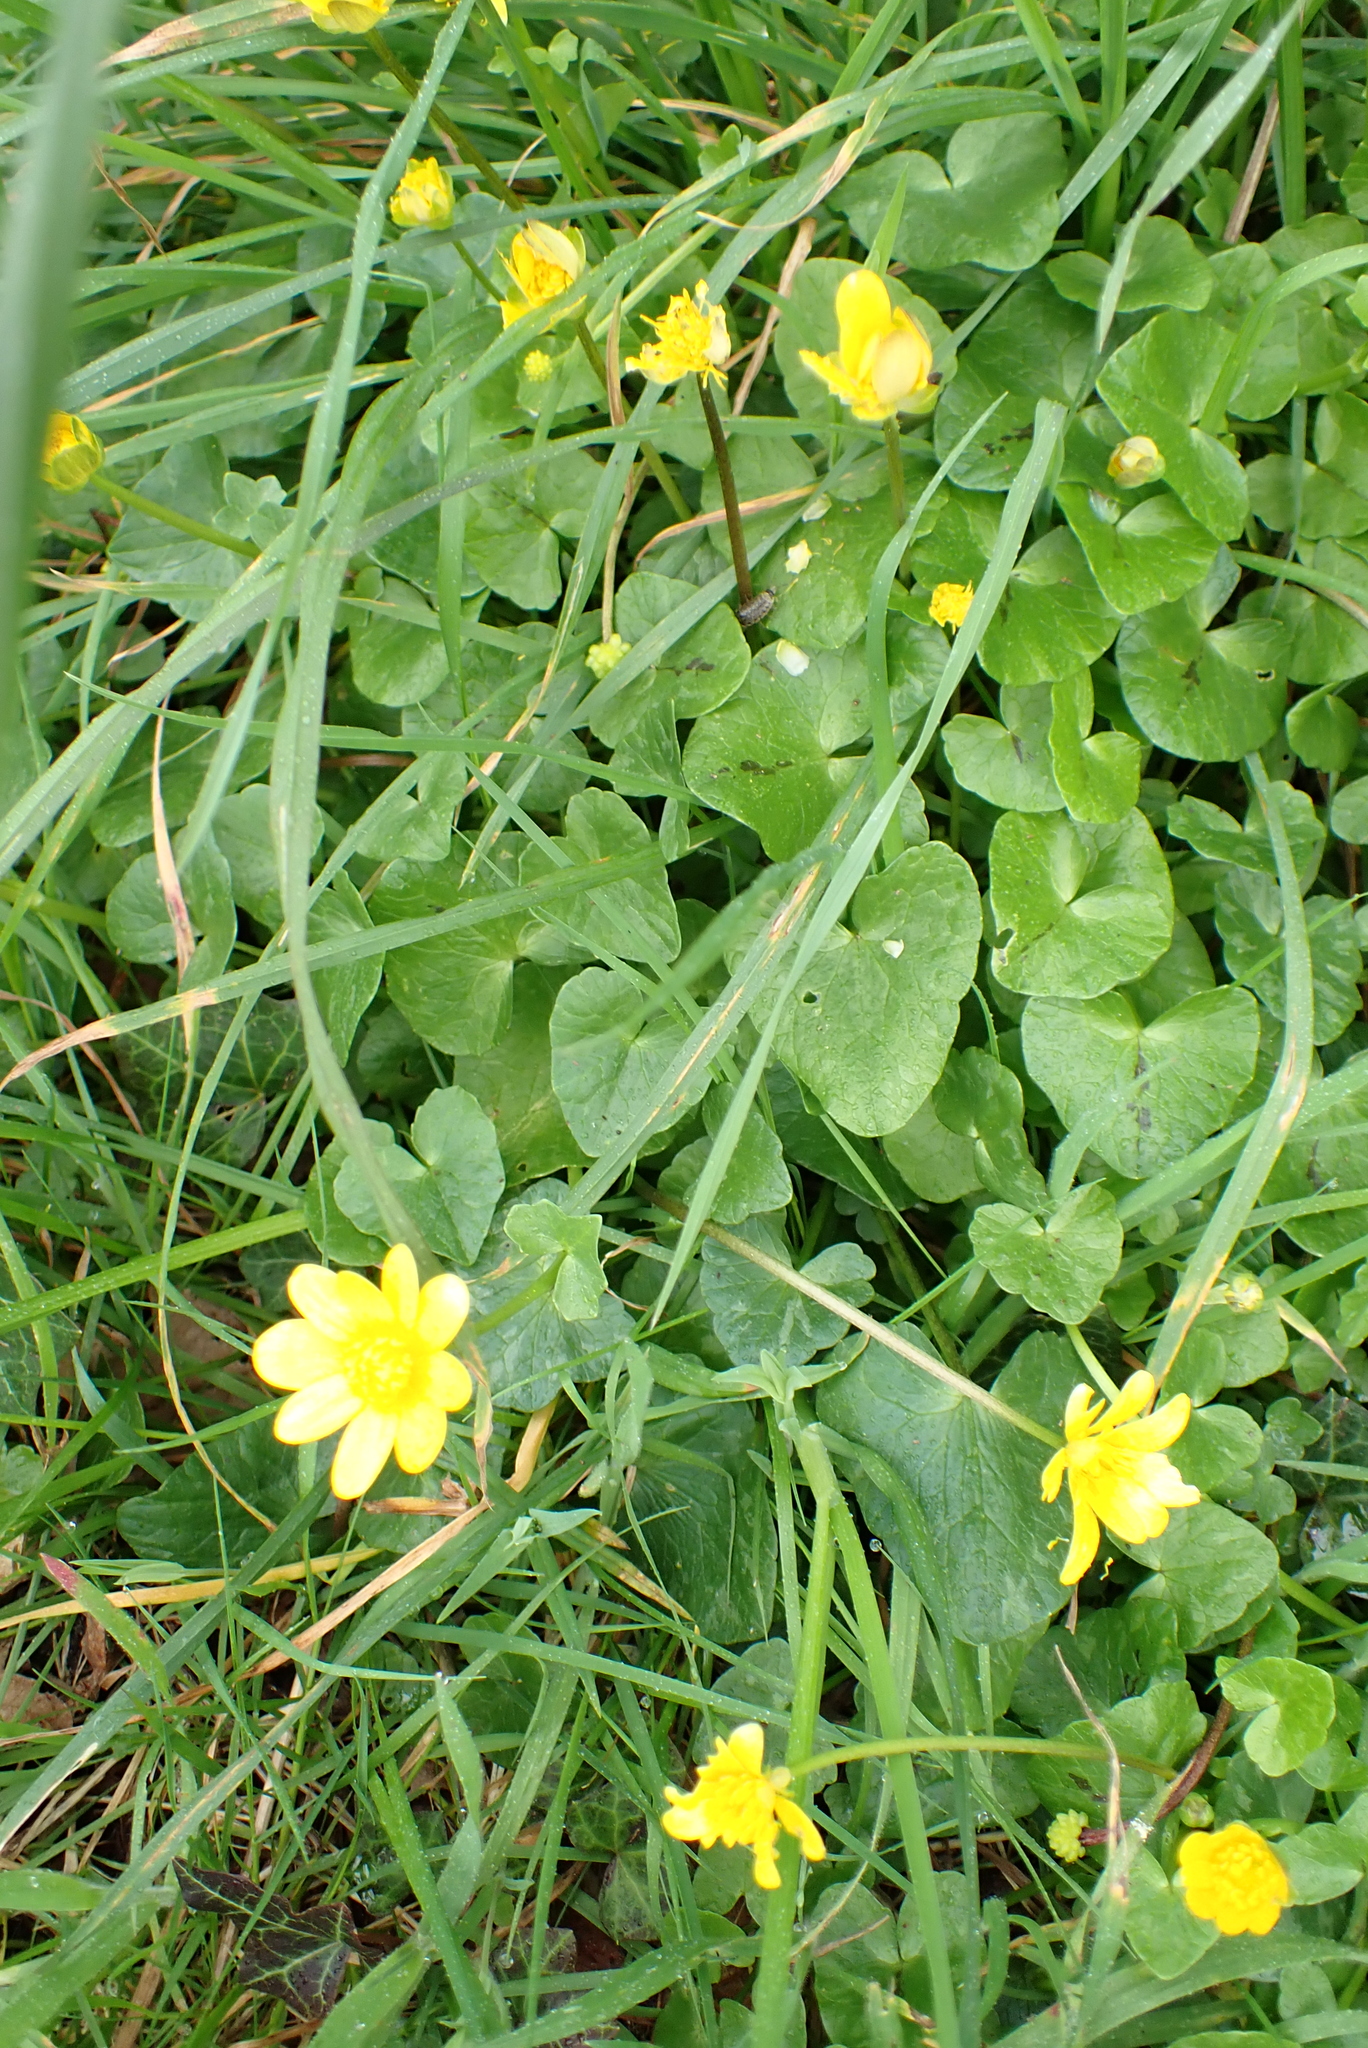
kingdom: Plantae
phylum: Tracheophyta
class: Magnoliopsida
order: Ranunculales
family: Ranunculaceae
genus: Ficaria
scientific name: Ficaria verna
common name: Lesser celandine
